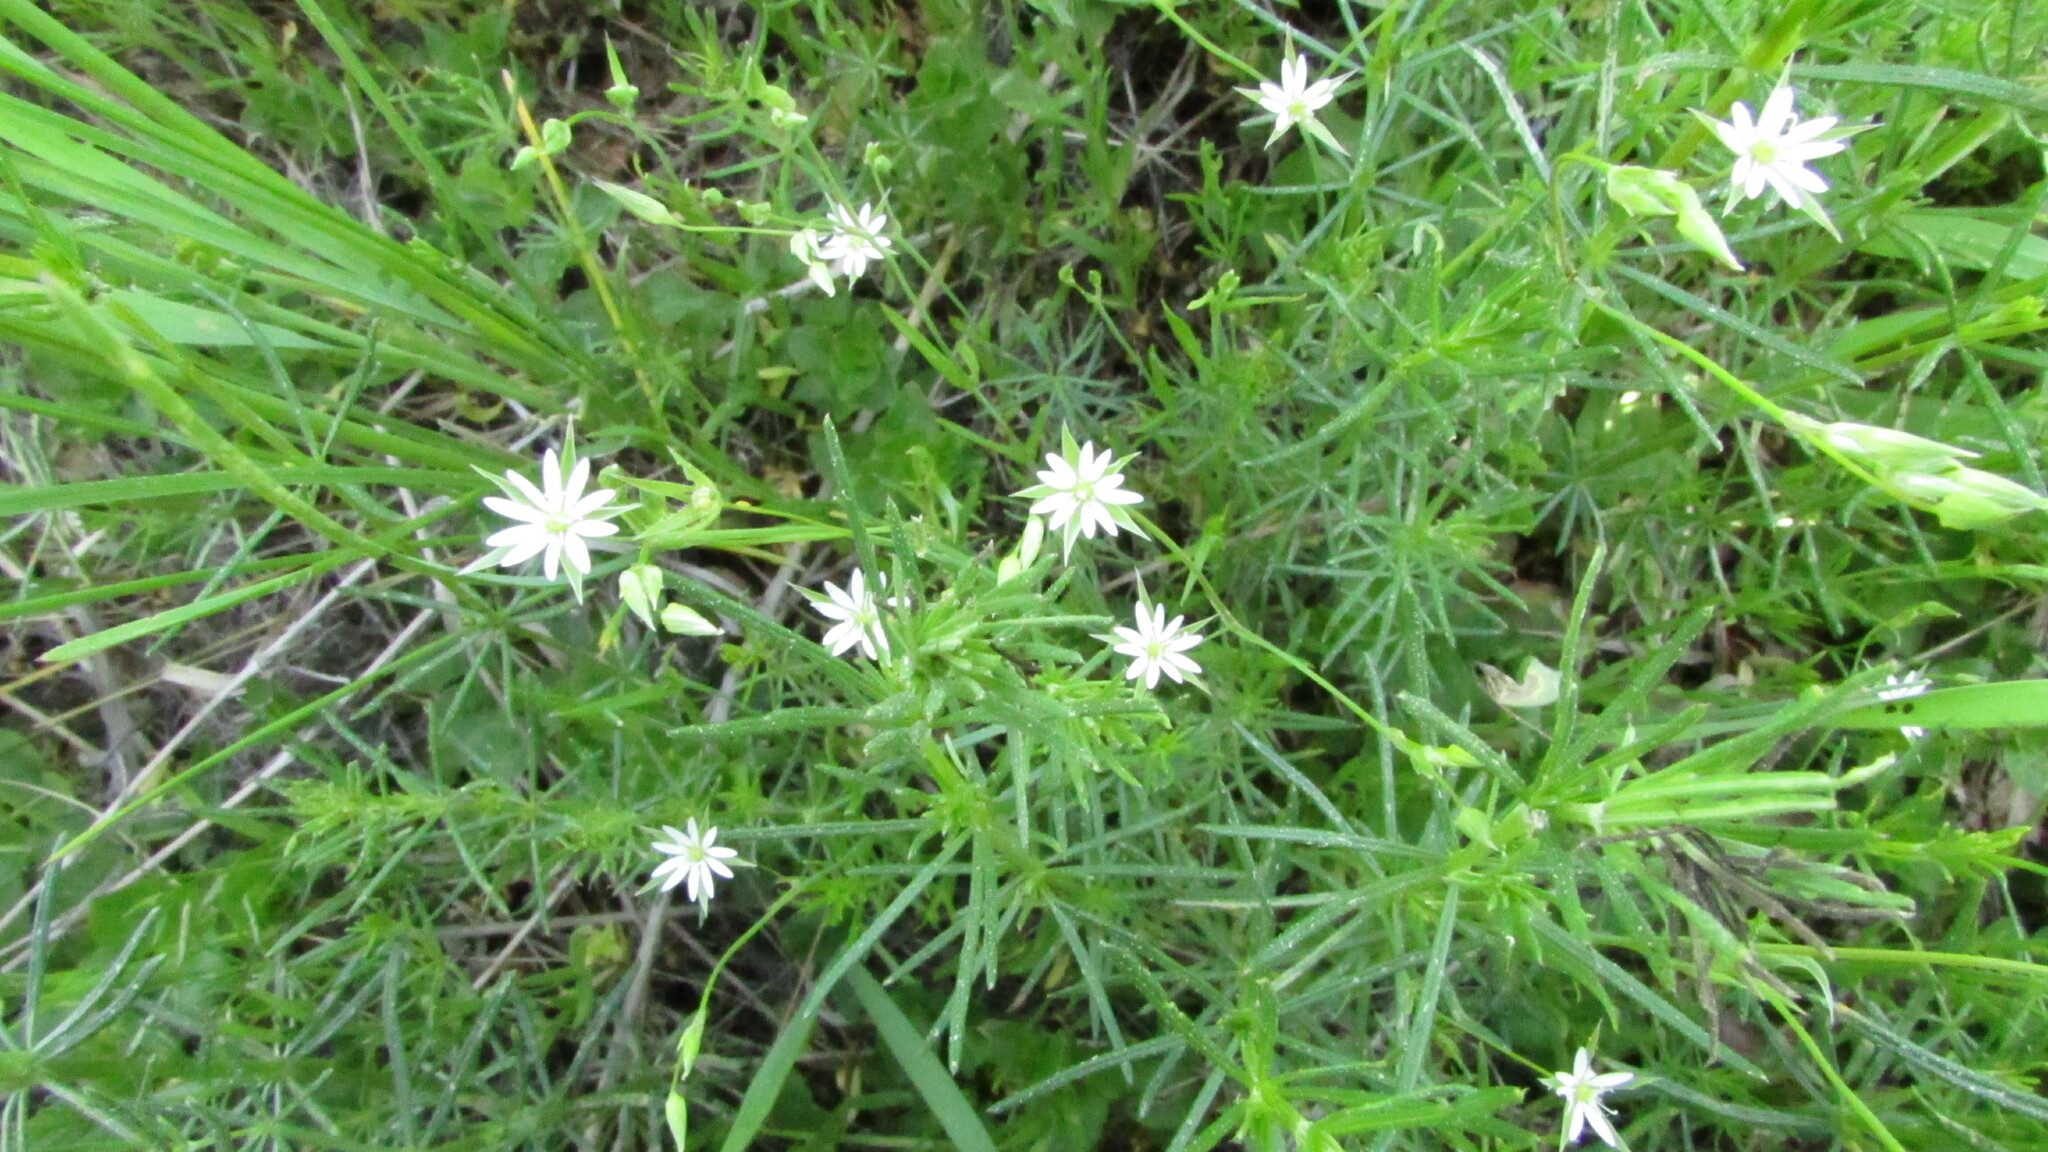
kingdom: Plantae
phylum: Tracheophyta
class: Magnoliopsida
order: Caryophyllales
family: Caryophyllaceae
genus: Stellaria
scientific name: Stellaria graminea
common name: Grass-like starwort
